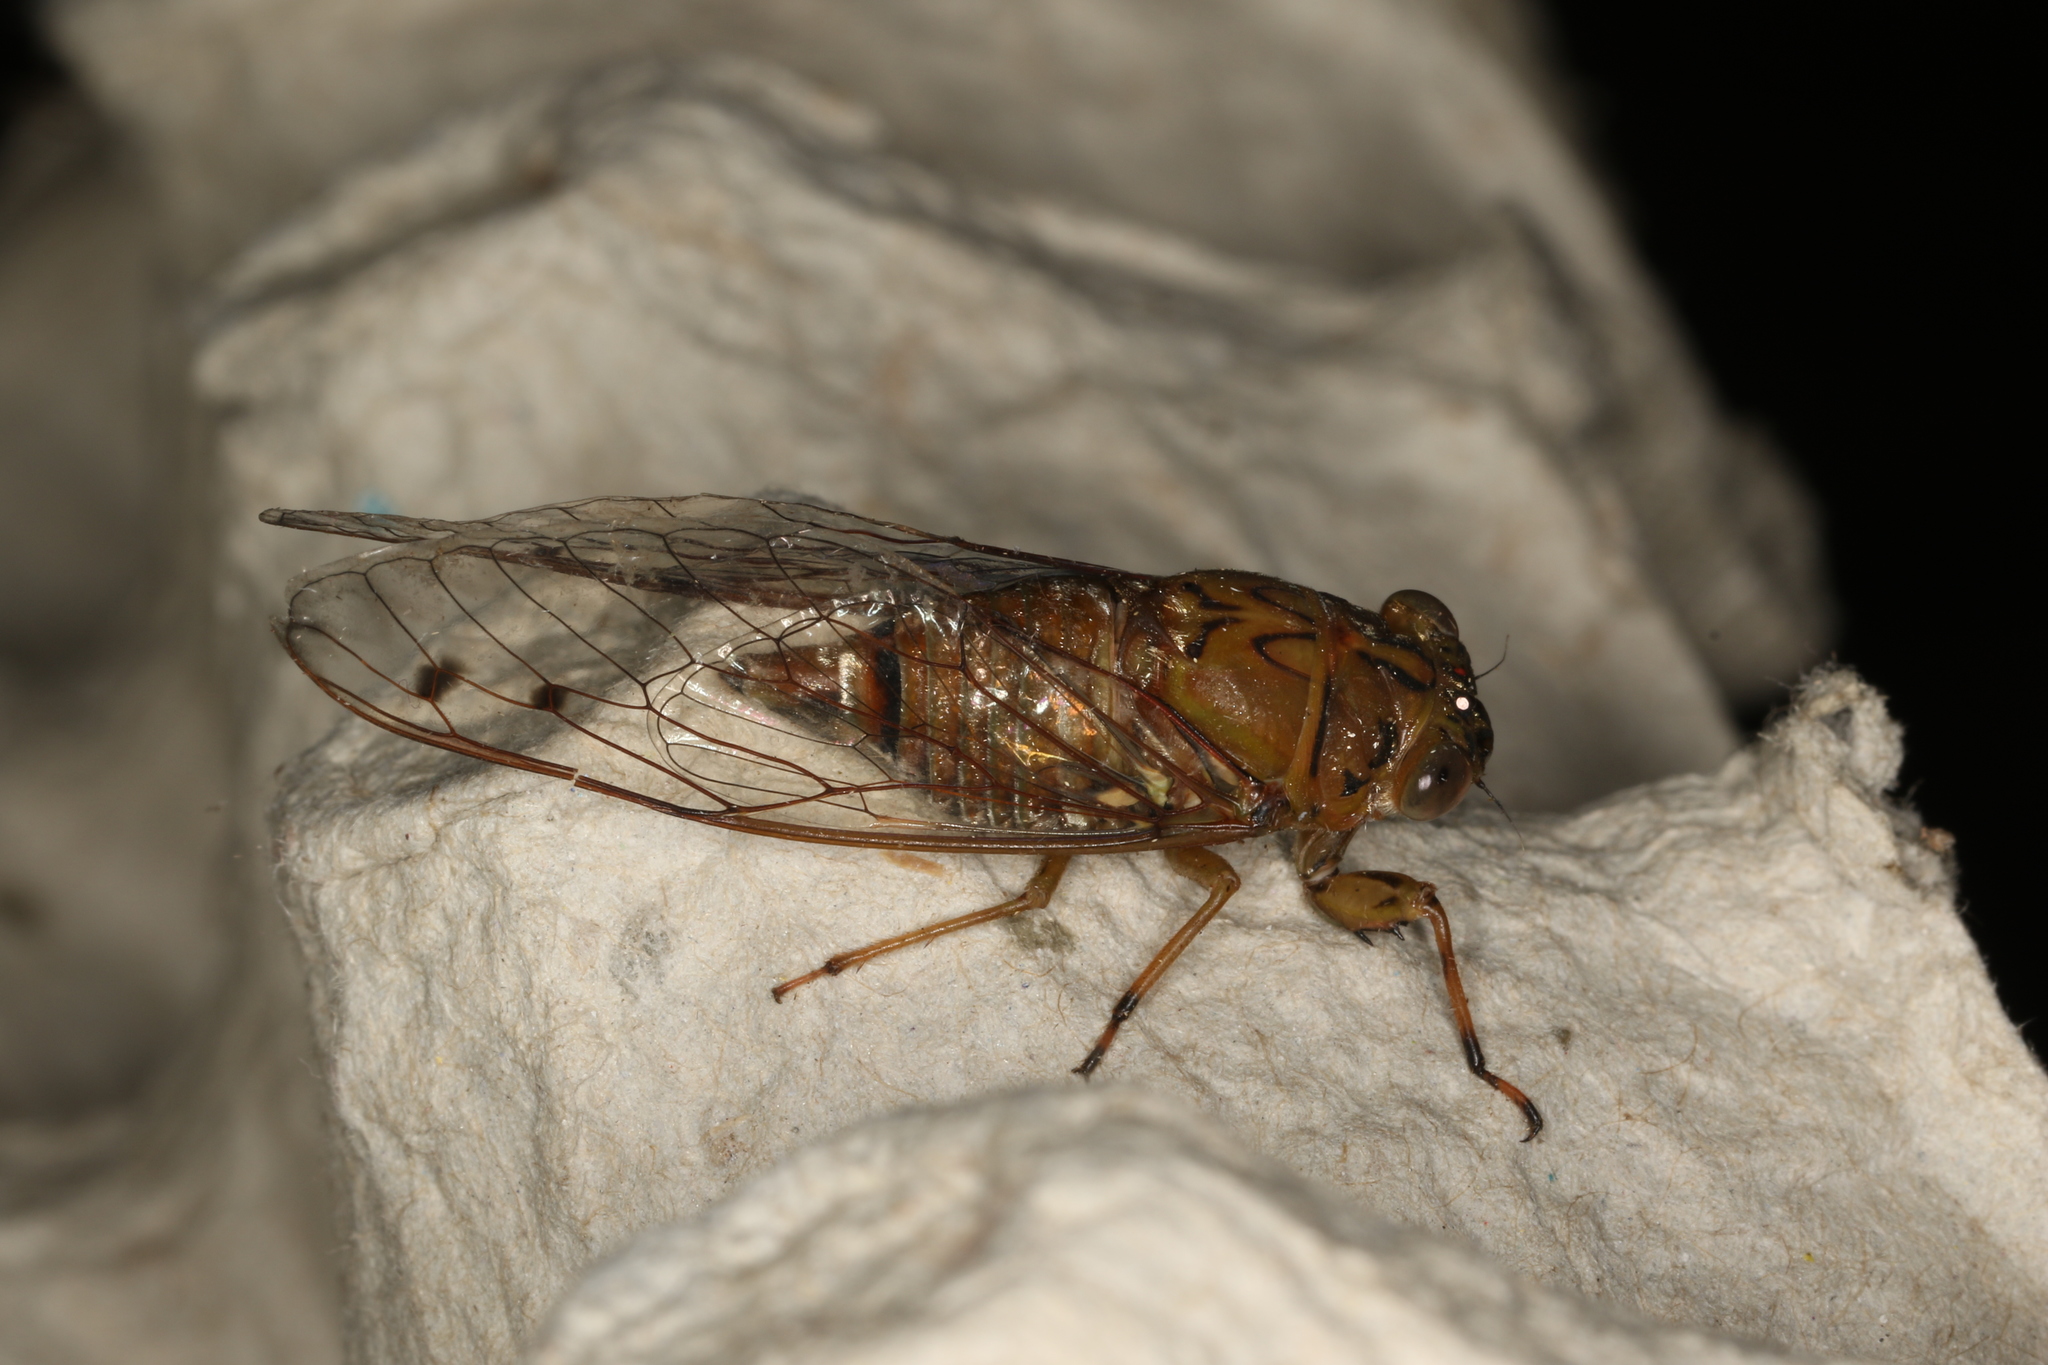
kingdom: Animalia
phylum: Arthropoda
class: Insecta
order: Hemiptera
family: Cicadidae
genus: Tamasa
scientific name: Tamasa burgessi
